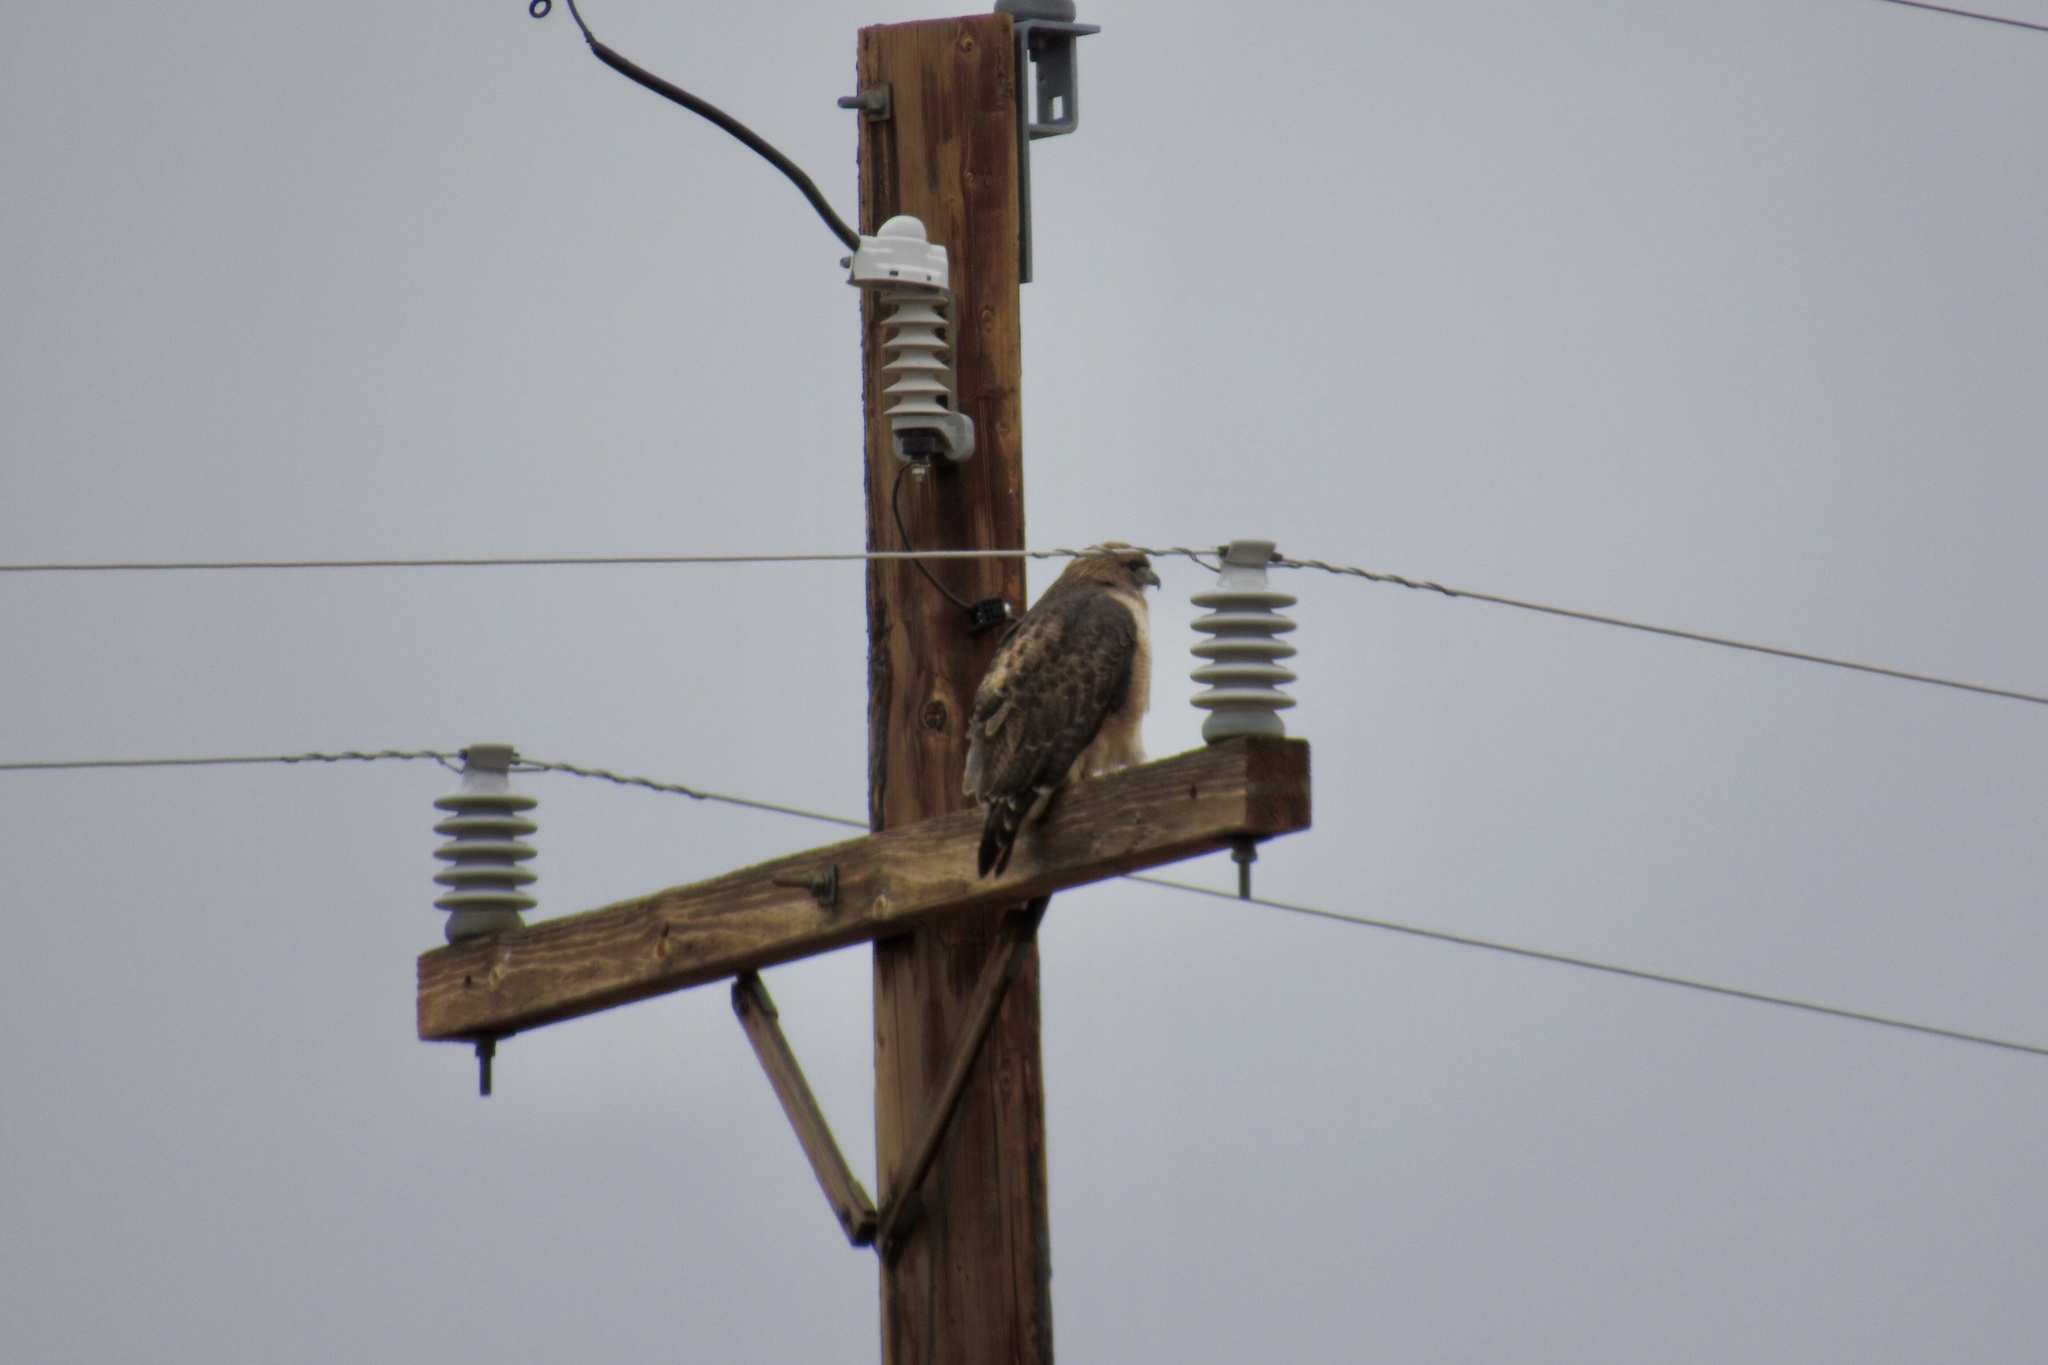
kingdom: Animalia
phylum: Chordata
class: Aves
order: Accipitriformes
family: Accipitridae
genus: Buteo
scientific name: Buteo jamaicensis
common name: Red-tailed hawk
